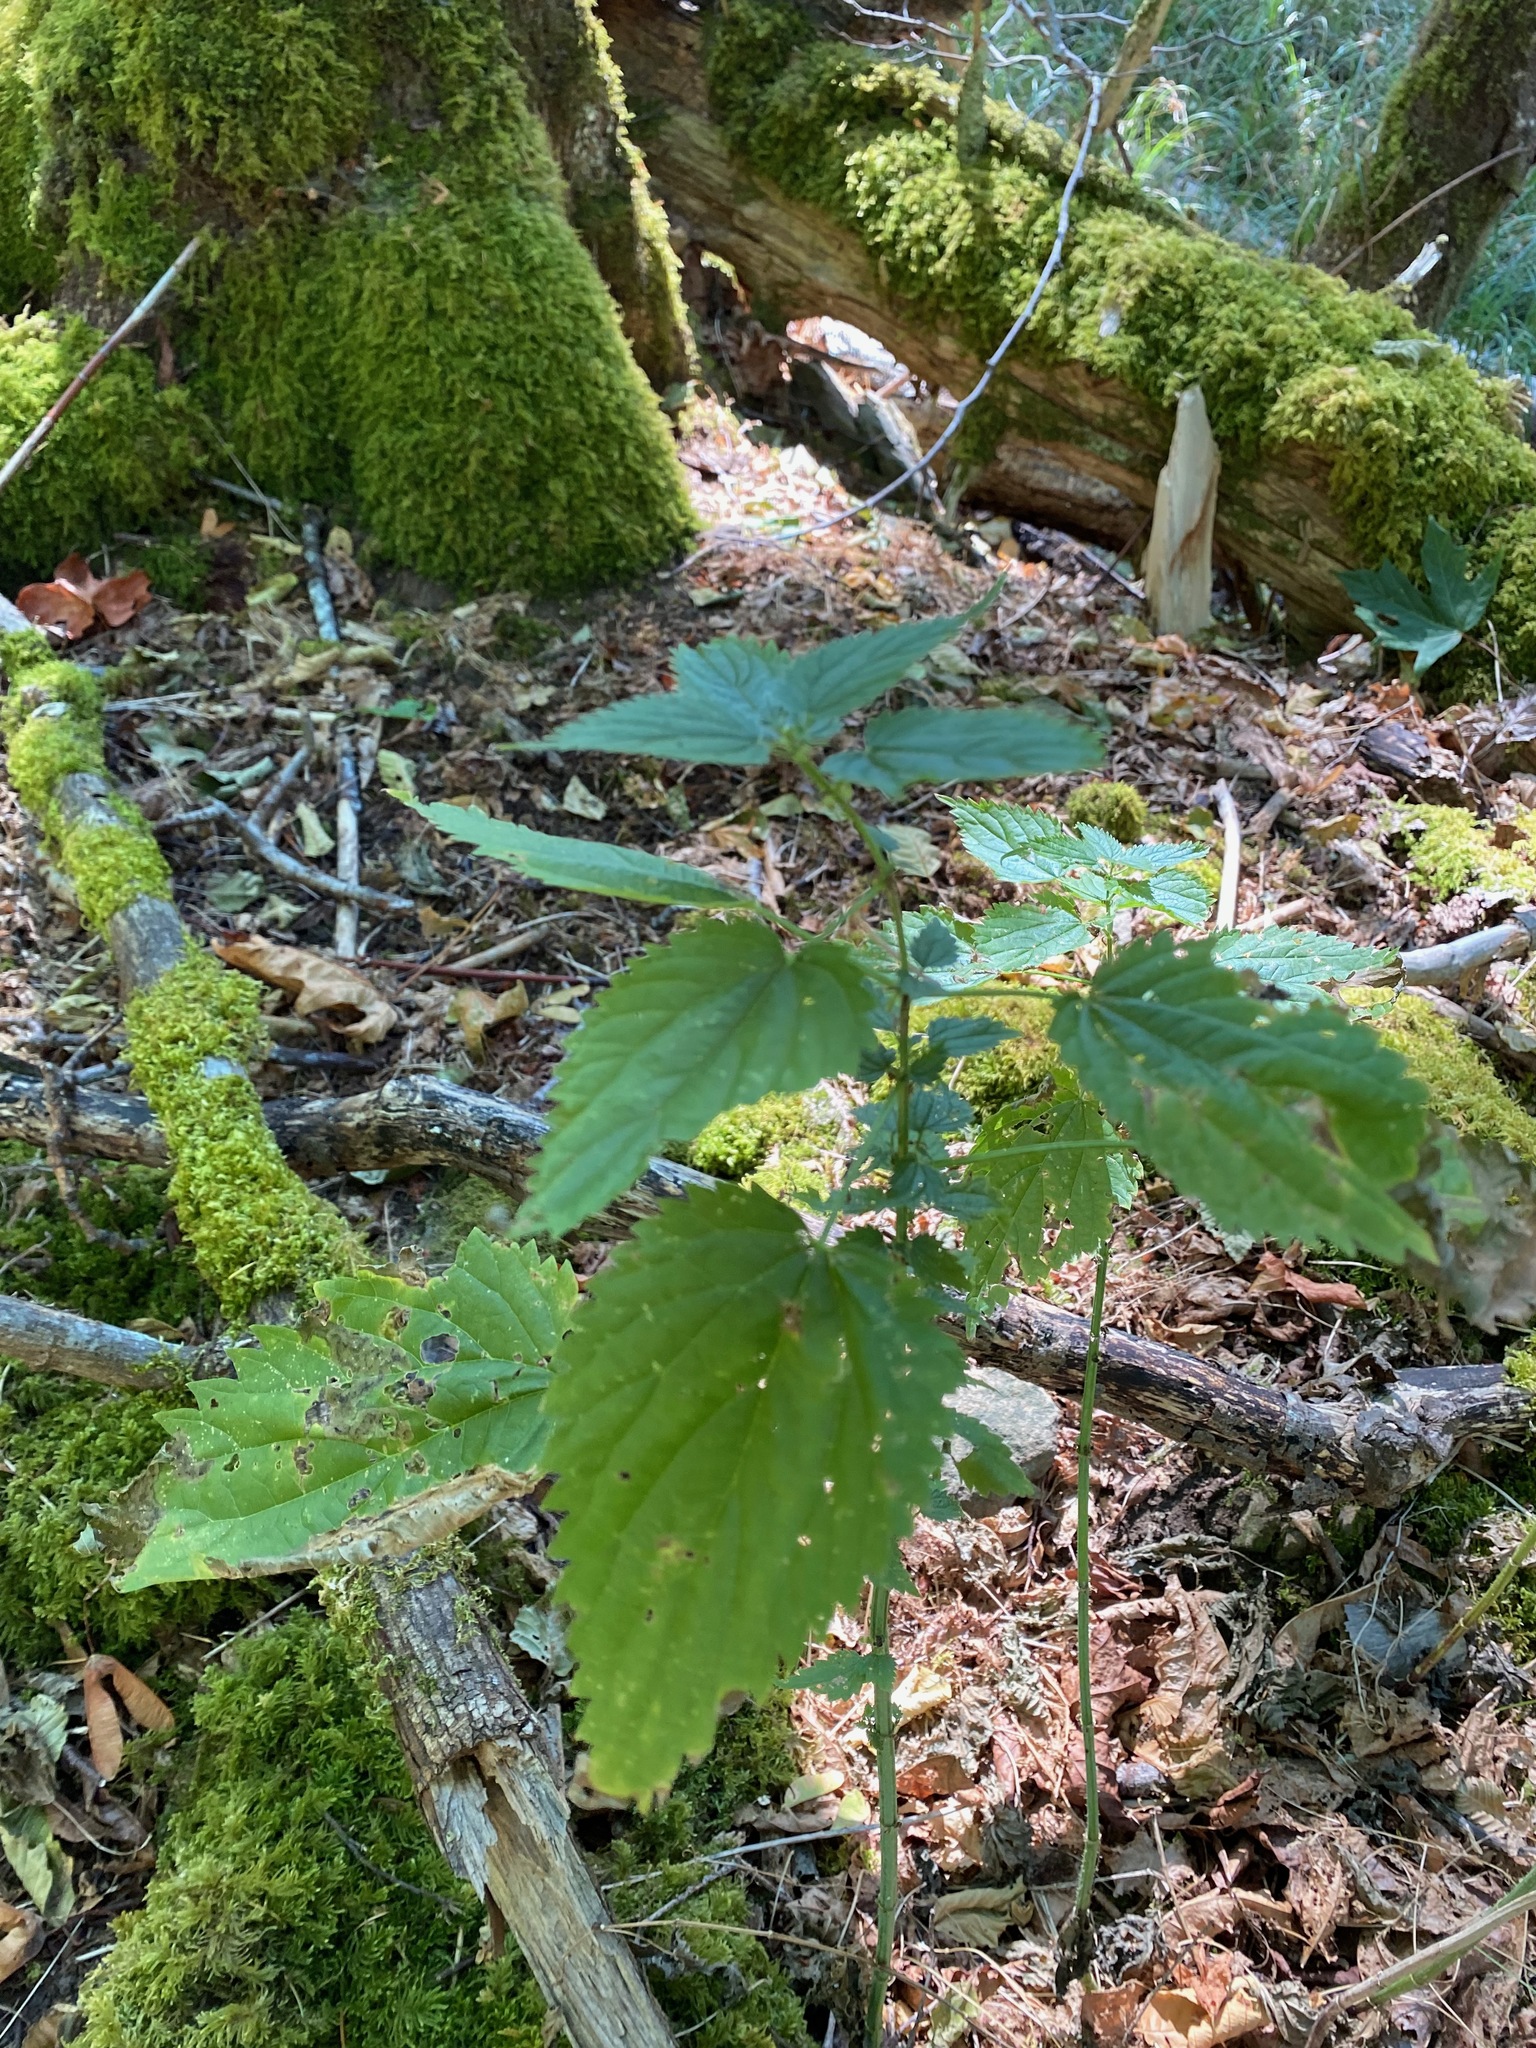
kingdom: Plantae
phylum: Tracheophyta
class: Magnoliopsida
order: Rosales
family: Urticaceae
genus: Urtica
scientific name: Urtica dioica
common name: Common nettle
